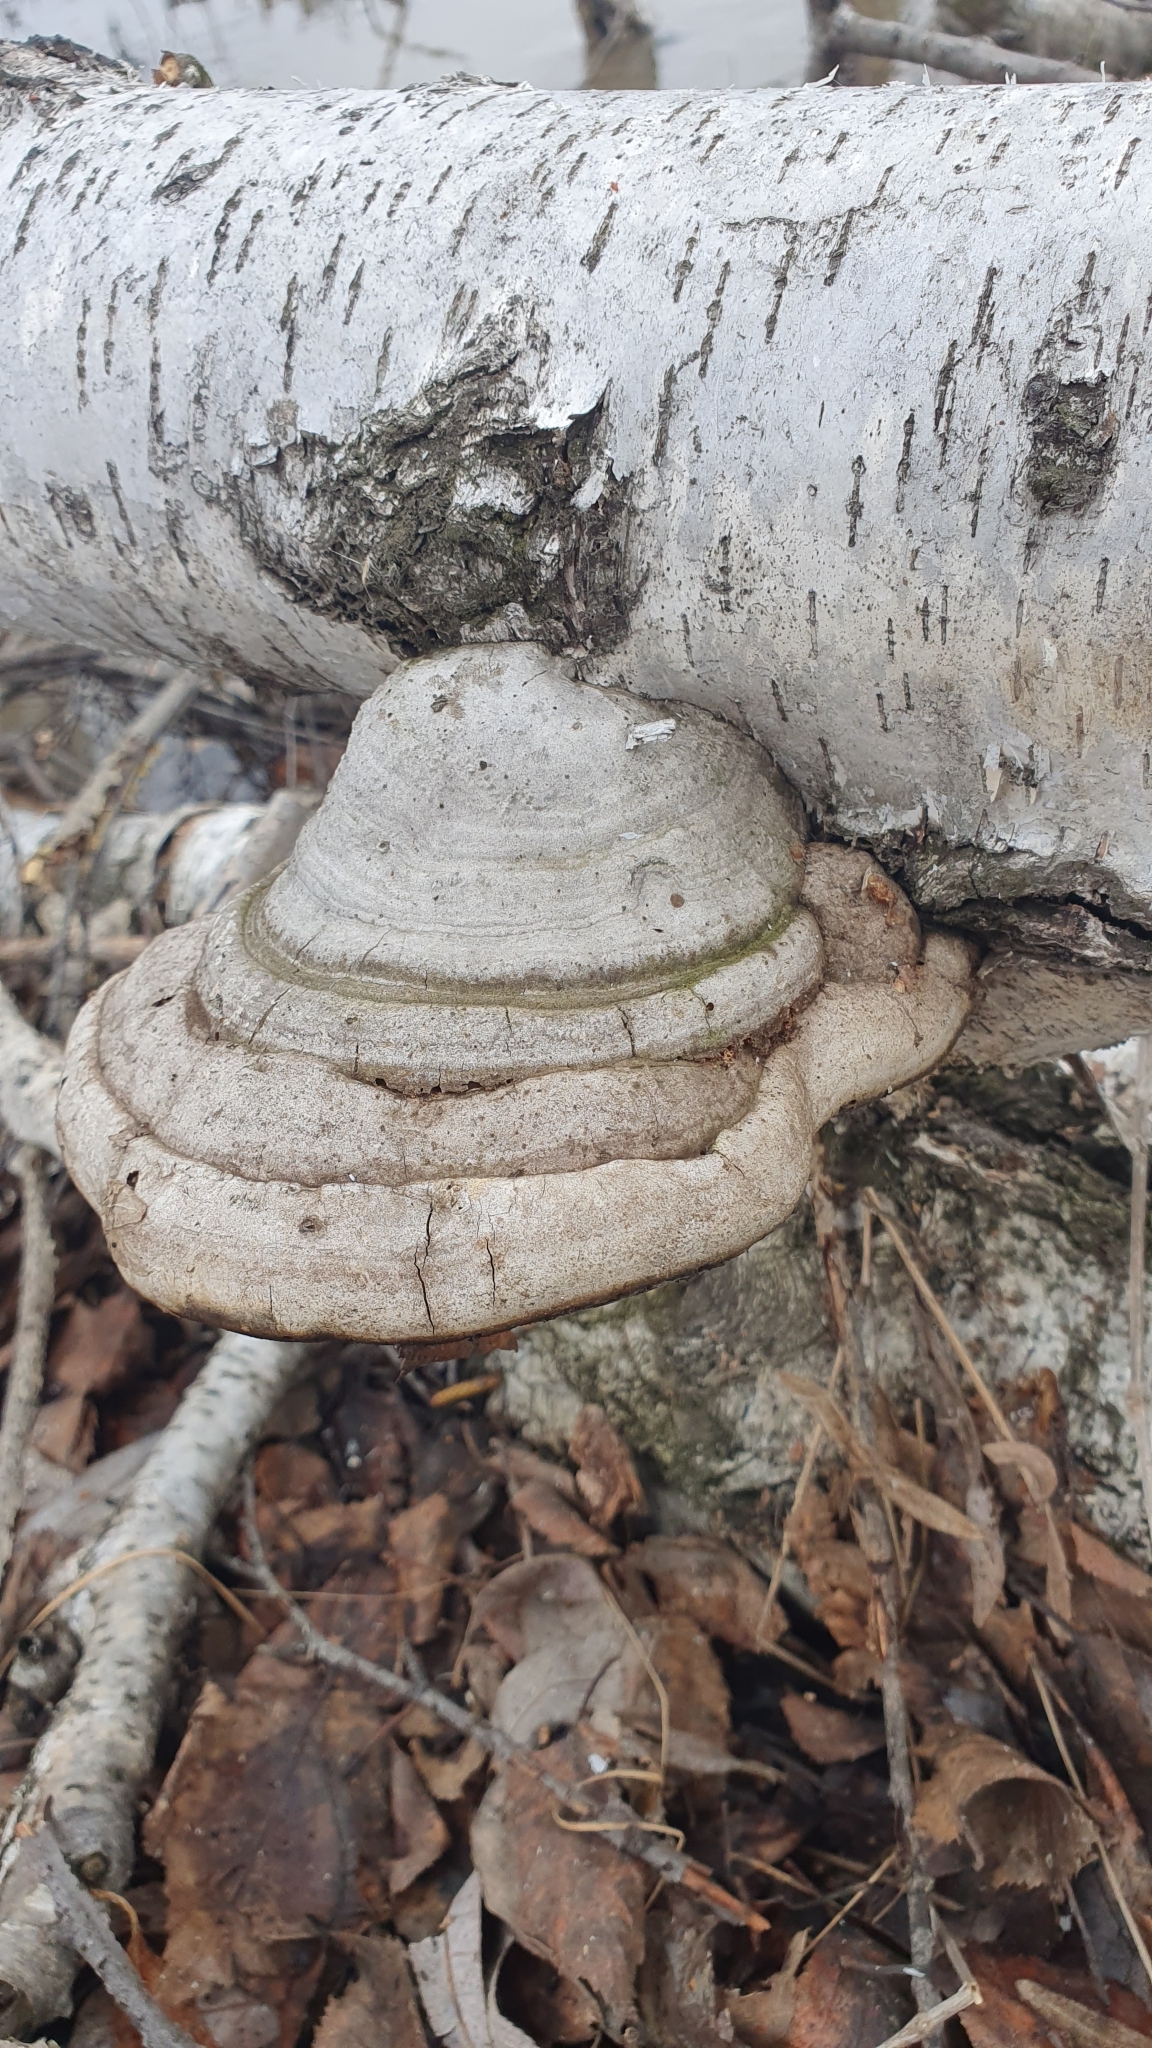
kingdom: Fungi
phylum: Basidiomycota
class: Agaricomycetes
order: Polyporales
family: Polyporaceae
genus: Fomes
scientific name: Fomes fomentarius
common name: Hoof fungus
